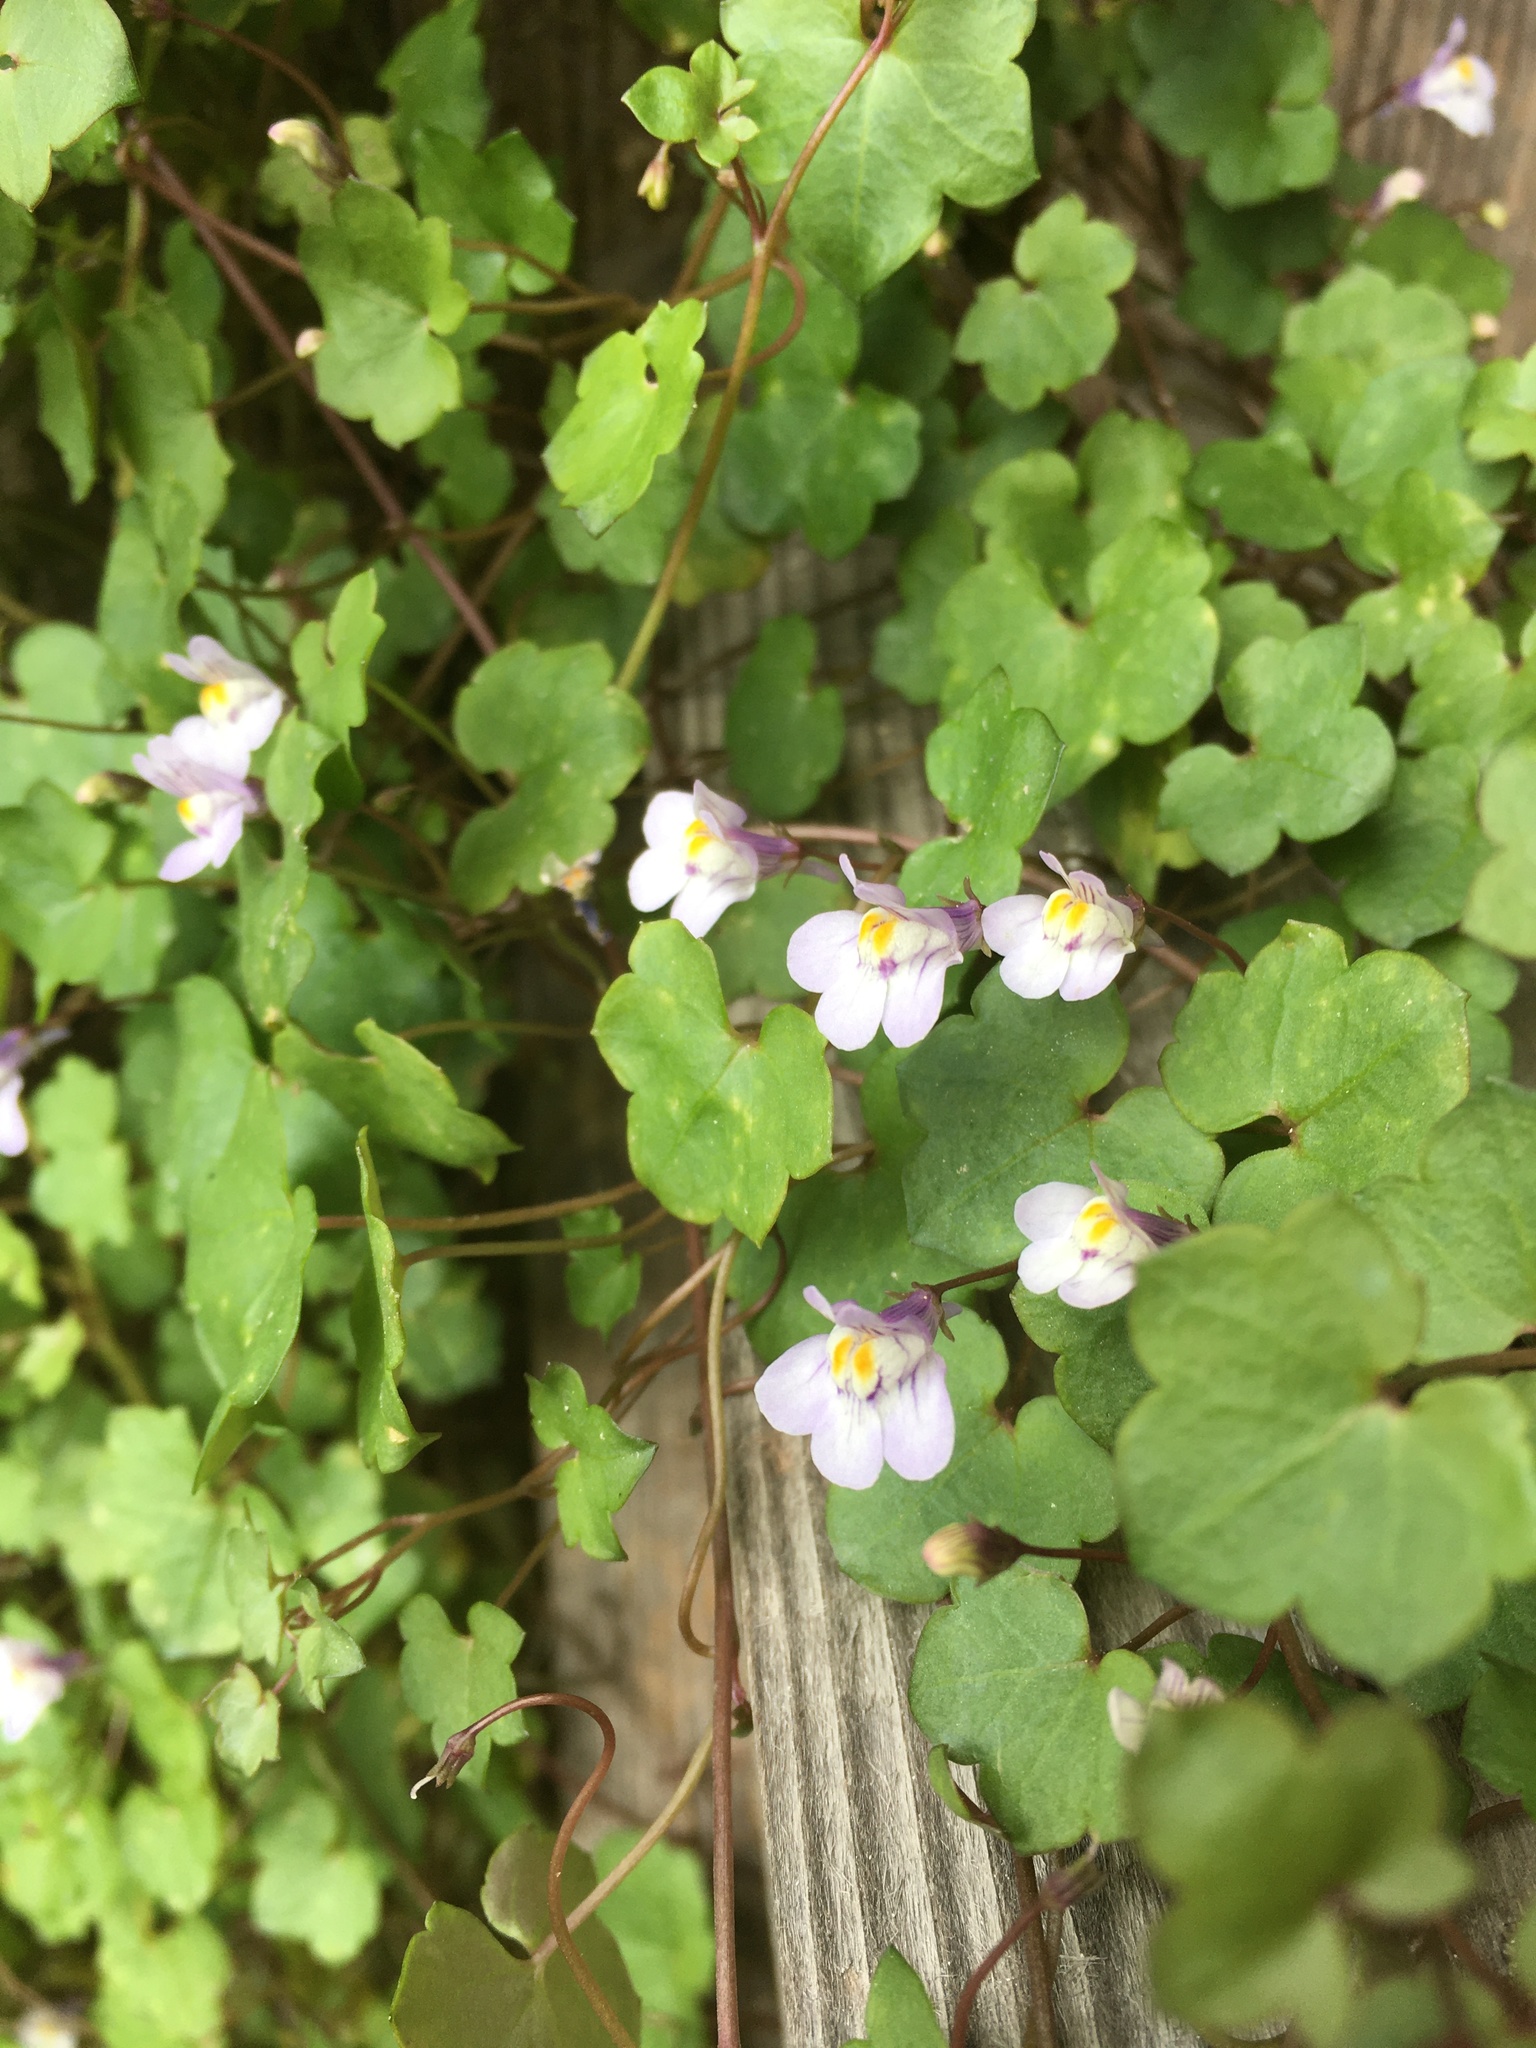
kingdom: Plantae
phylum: Tracheophyta
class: Magnoliopsida
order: Lamiales
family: Plantaginaceae
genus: Cymbalaria
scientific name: Cymbalaria muralis
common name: Ivy-leaved toadflax
